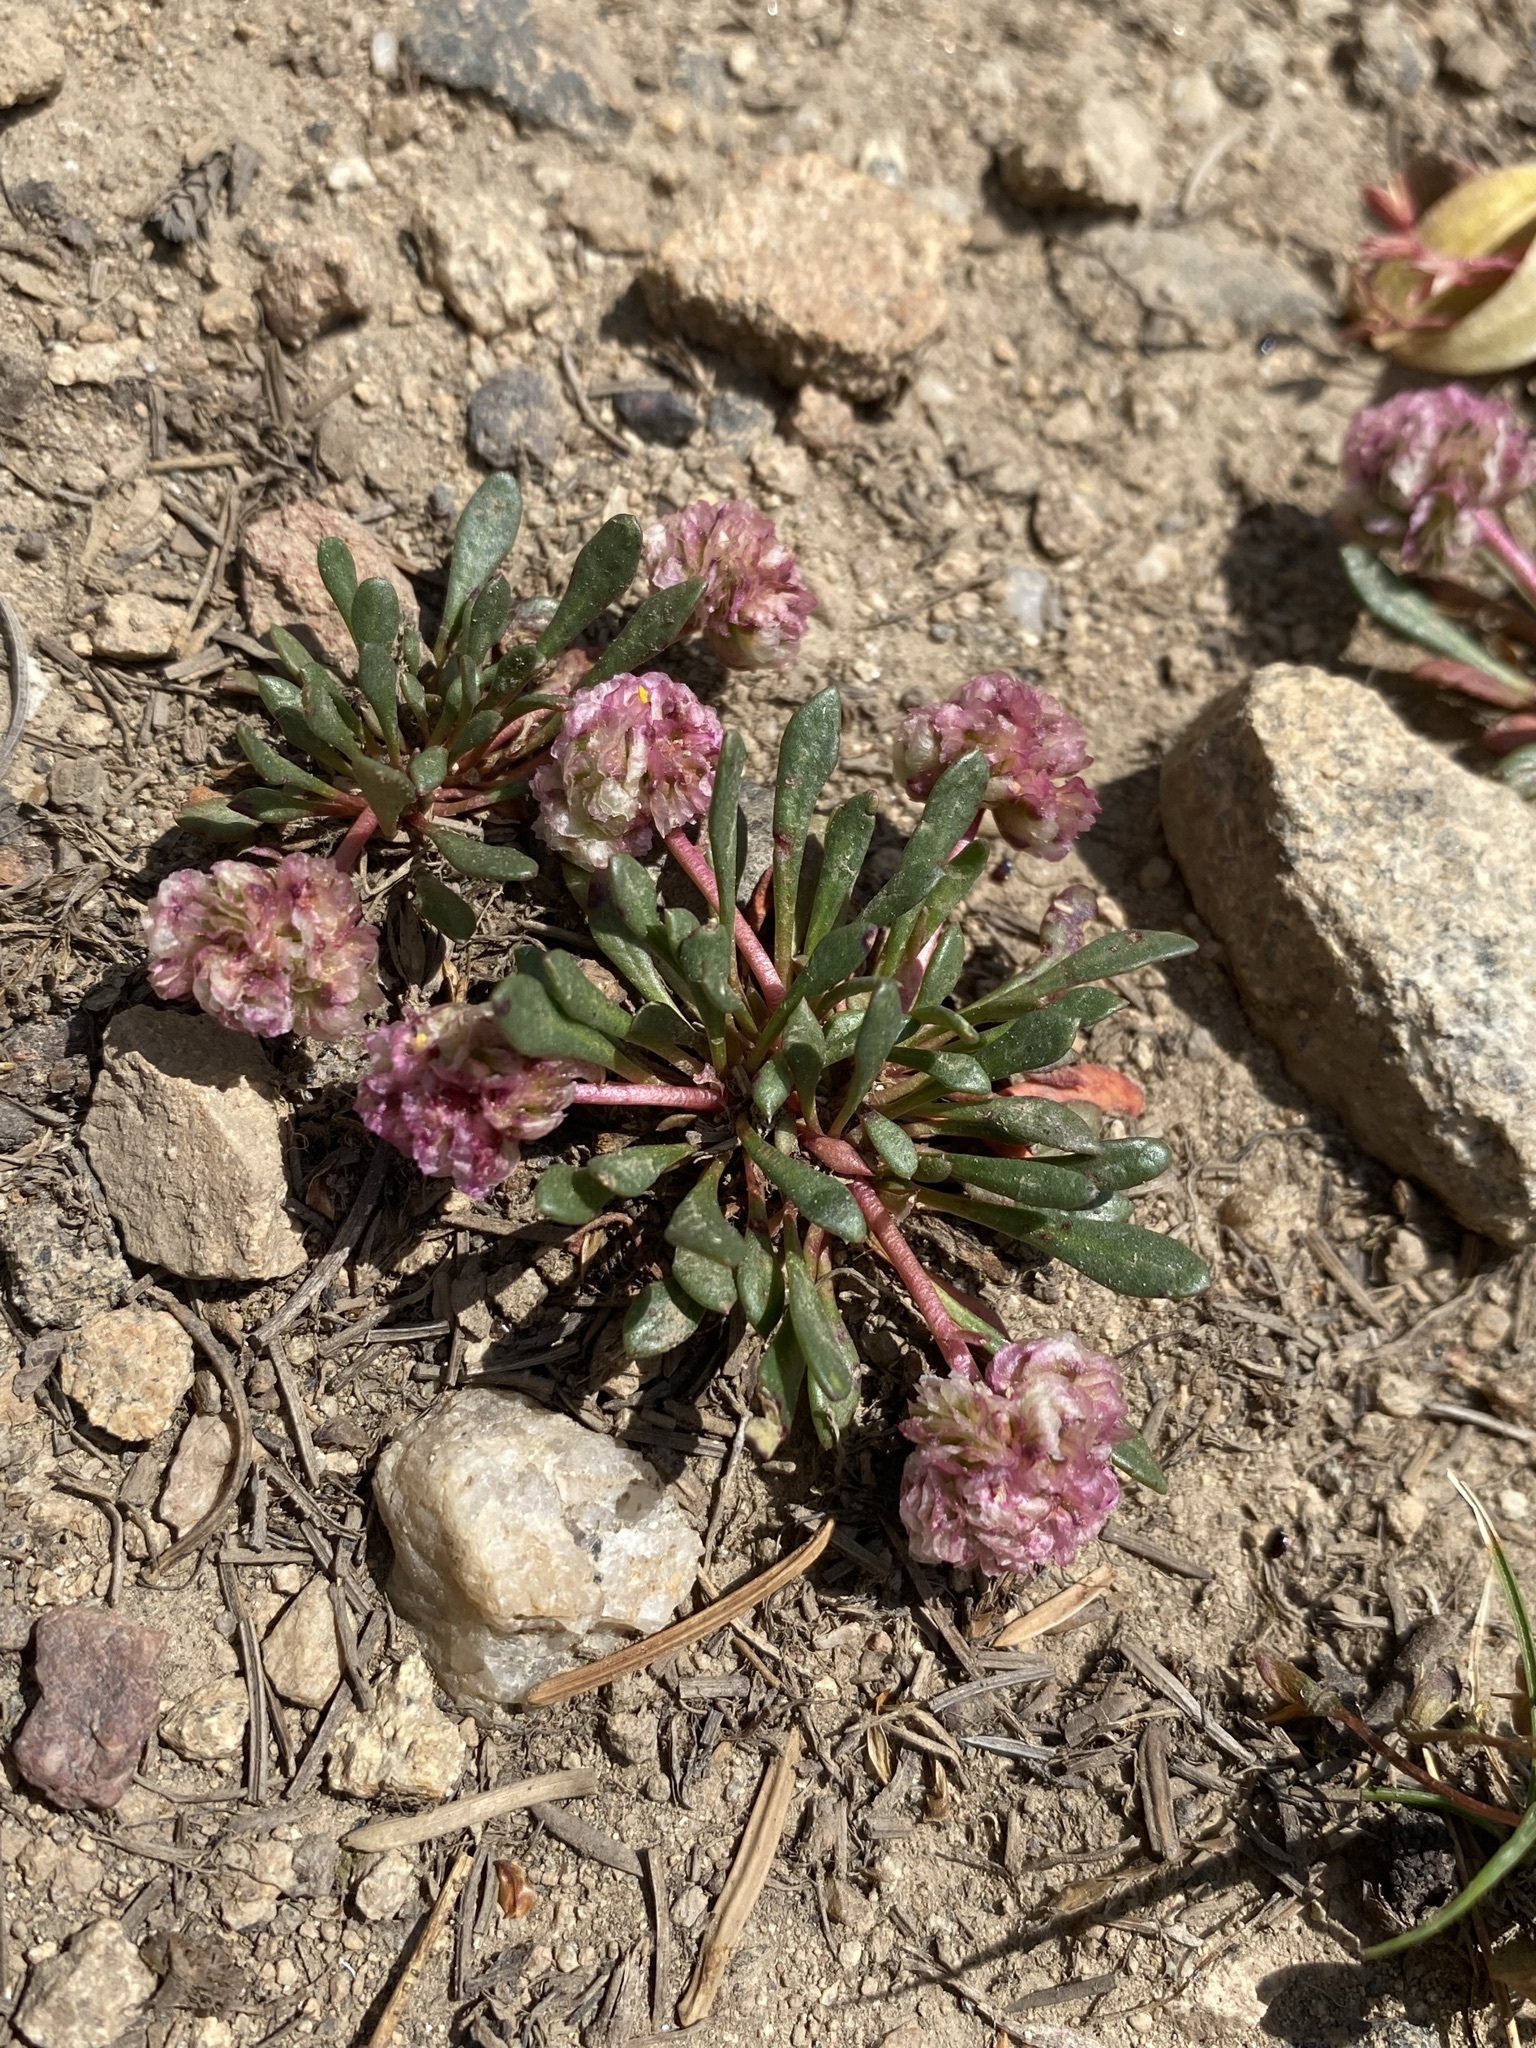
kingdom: Plantae
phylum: Tracheophyta
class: Magnoliopsida
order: Caryophyllales
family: Montiaceae
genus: Calyptridium
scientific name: Calyptridium umbellatum
